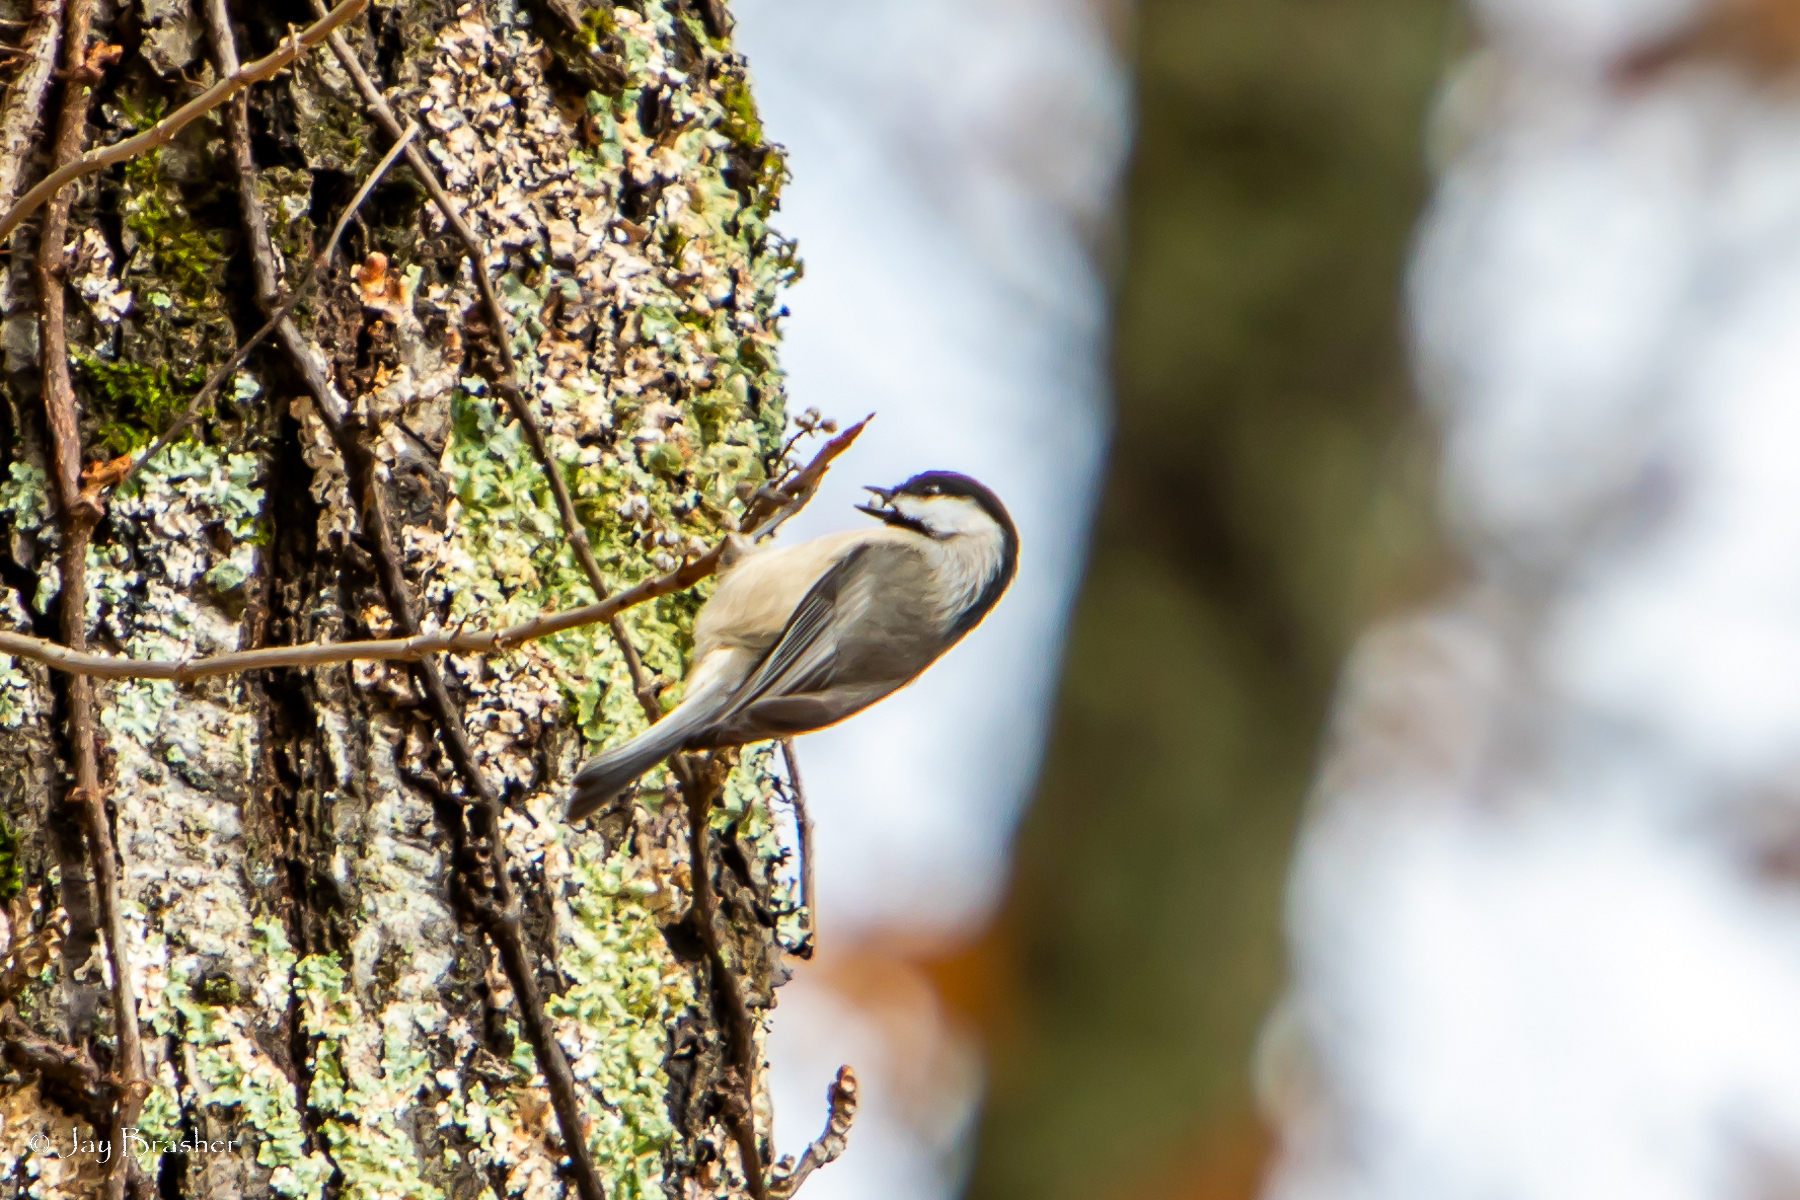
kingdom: Animalia
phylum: Chordata
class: Aves
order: Passeriformes
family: Paridae
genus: Poecile
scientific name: Poecile carolinensis
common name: Carolina chickadee
